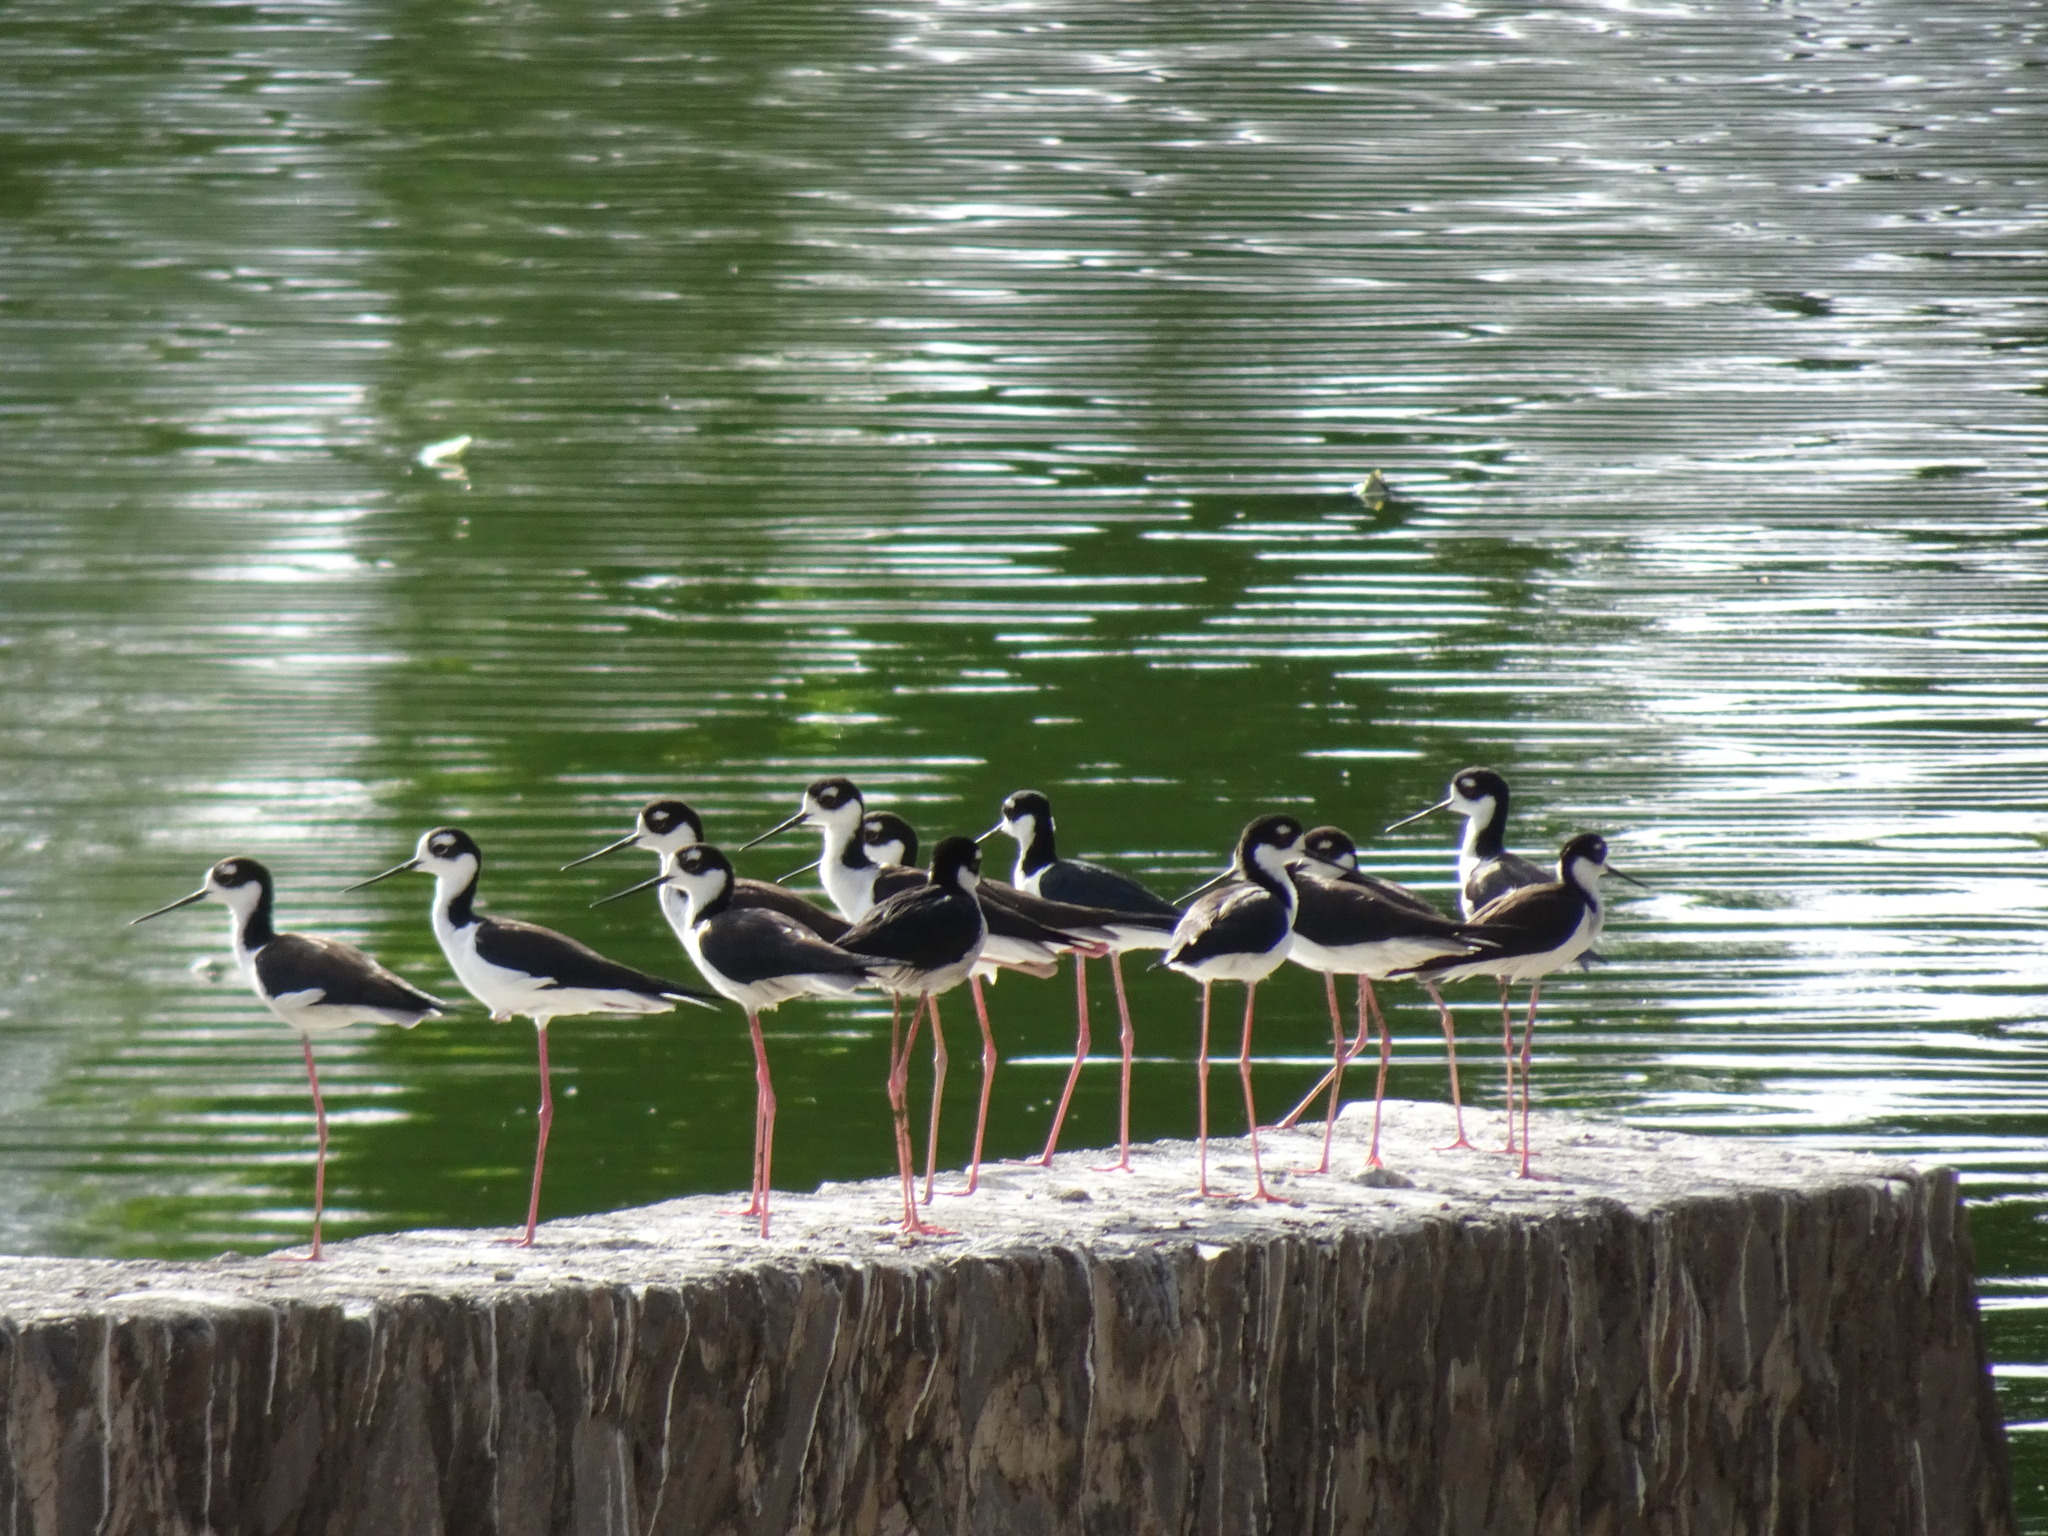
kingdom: Animalia
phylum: Chordata
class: Aves
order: Charadriiformes
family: Recurvirostridae
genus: Himantopus
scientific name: Himantopus mexicanus
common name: Black-necked stilt
